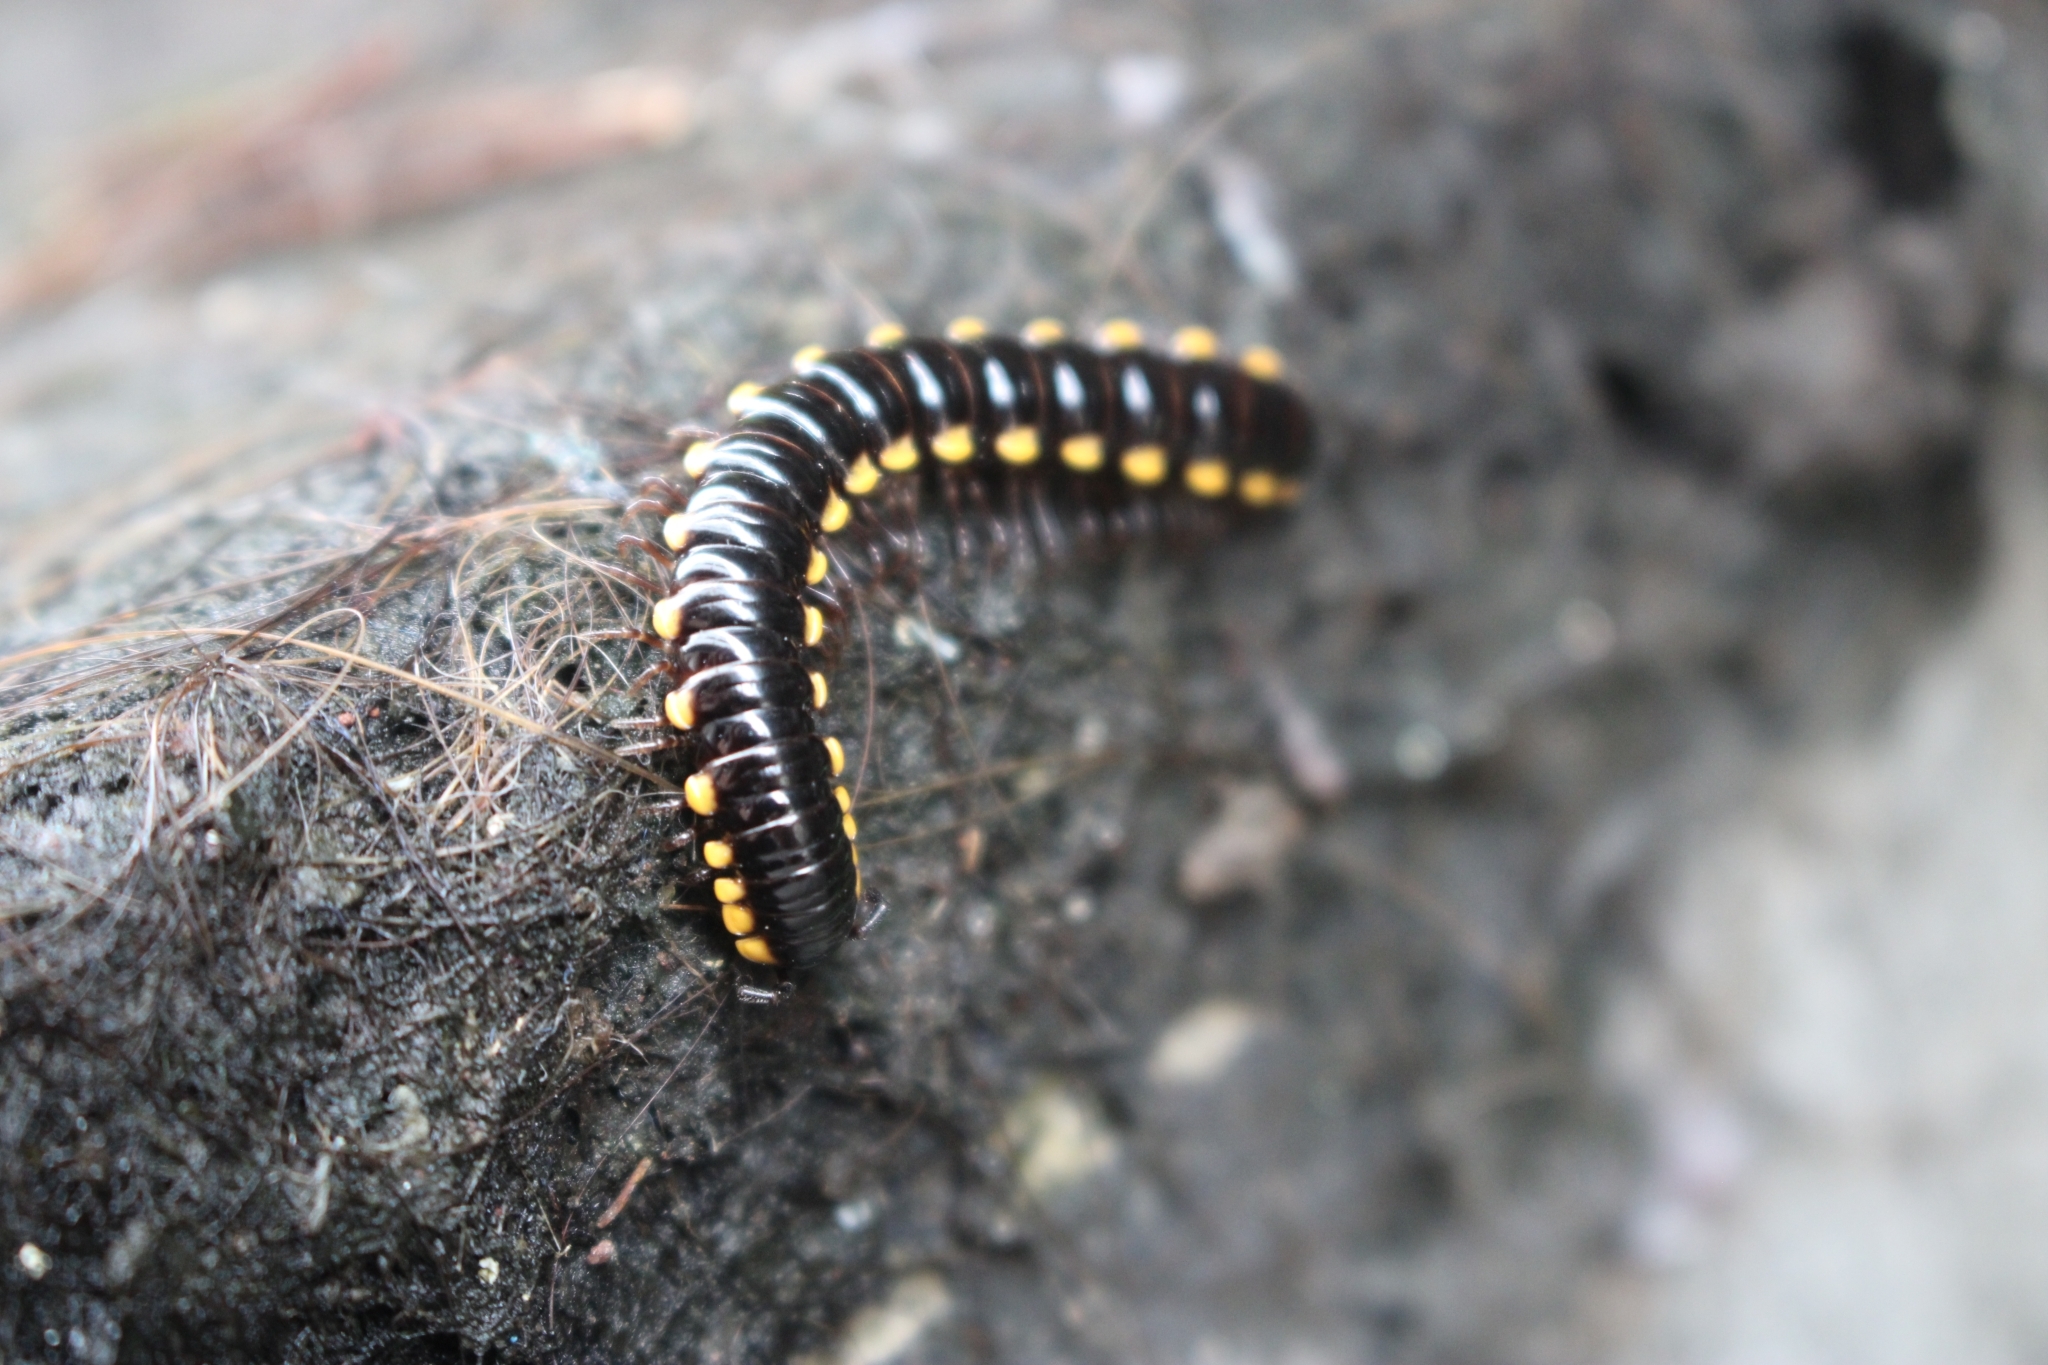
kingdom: Animalia
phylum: Arthropoda
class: Diplopoda
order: Polydesmida
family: Paradoxosomatidae
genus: Anoplodesmus
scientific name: Anoplodesmus saussurii
